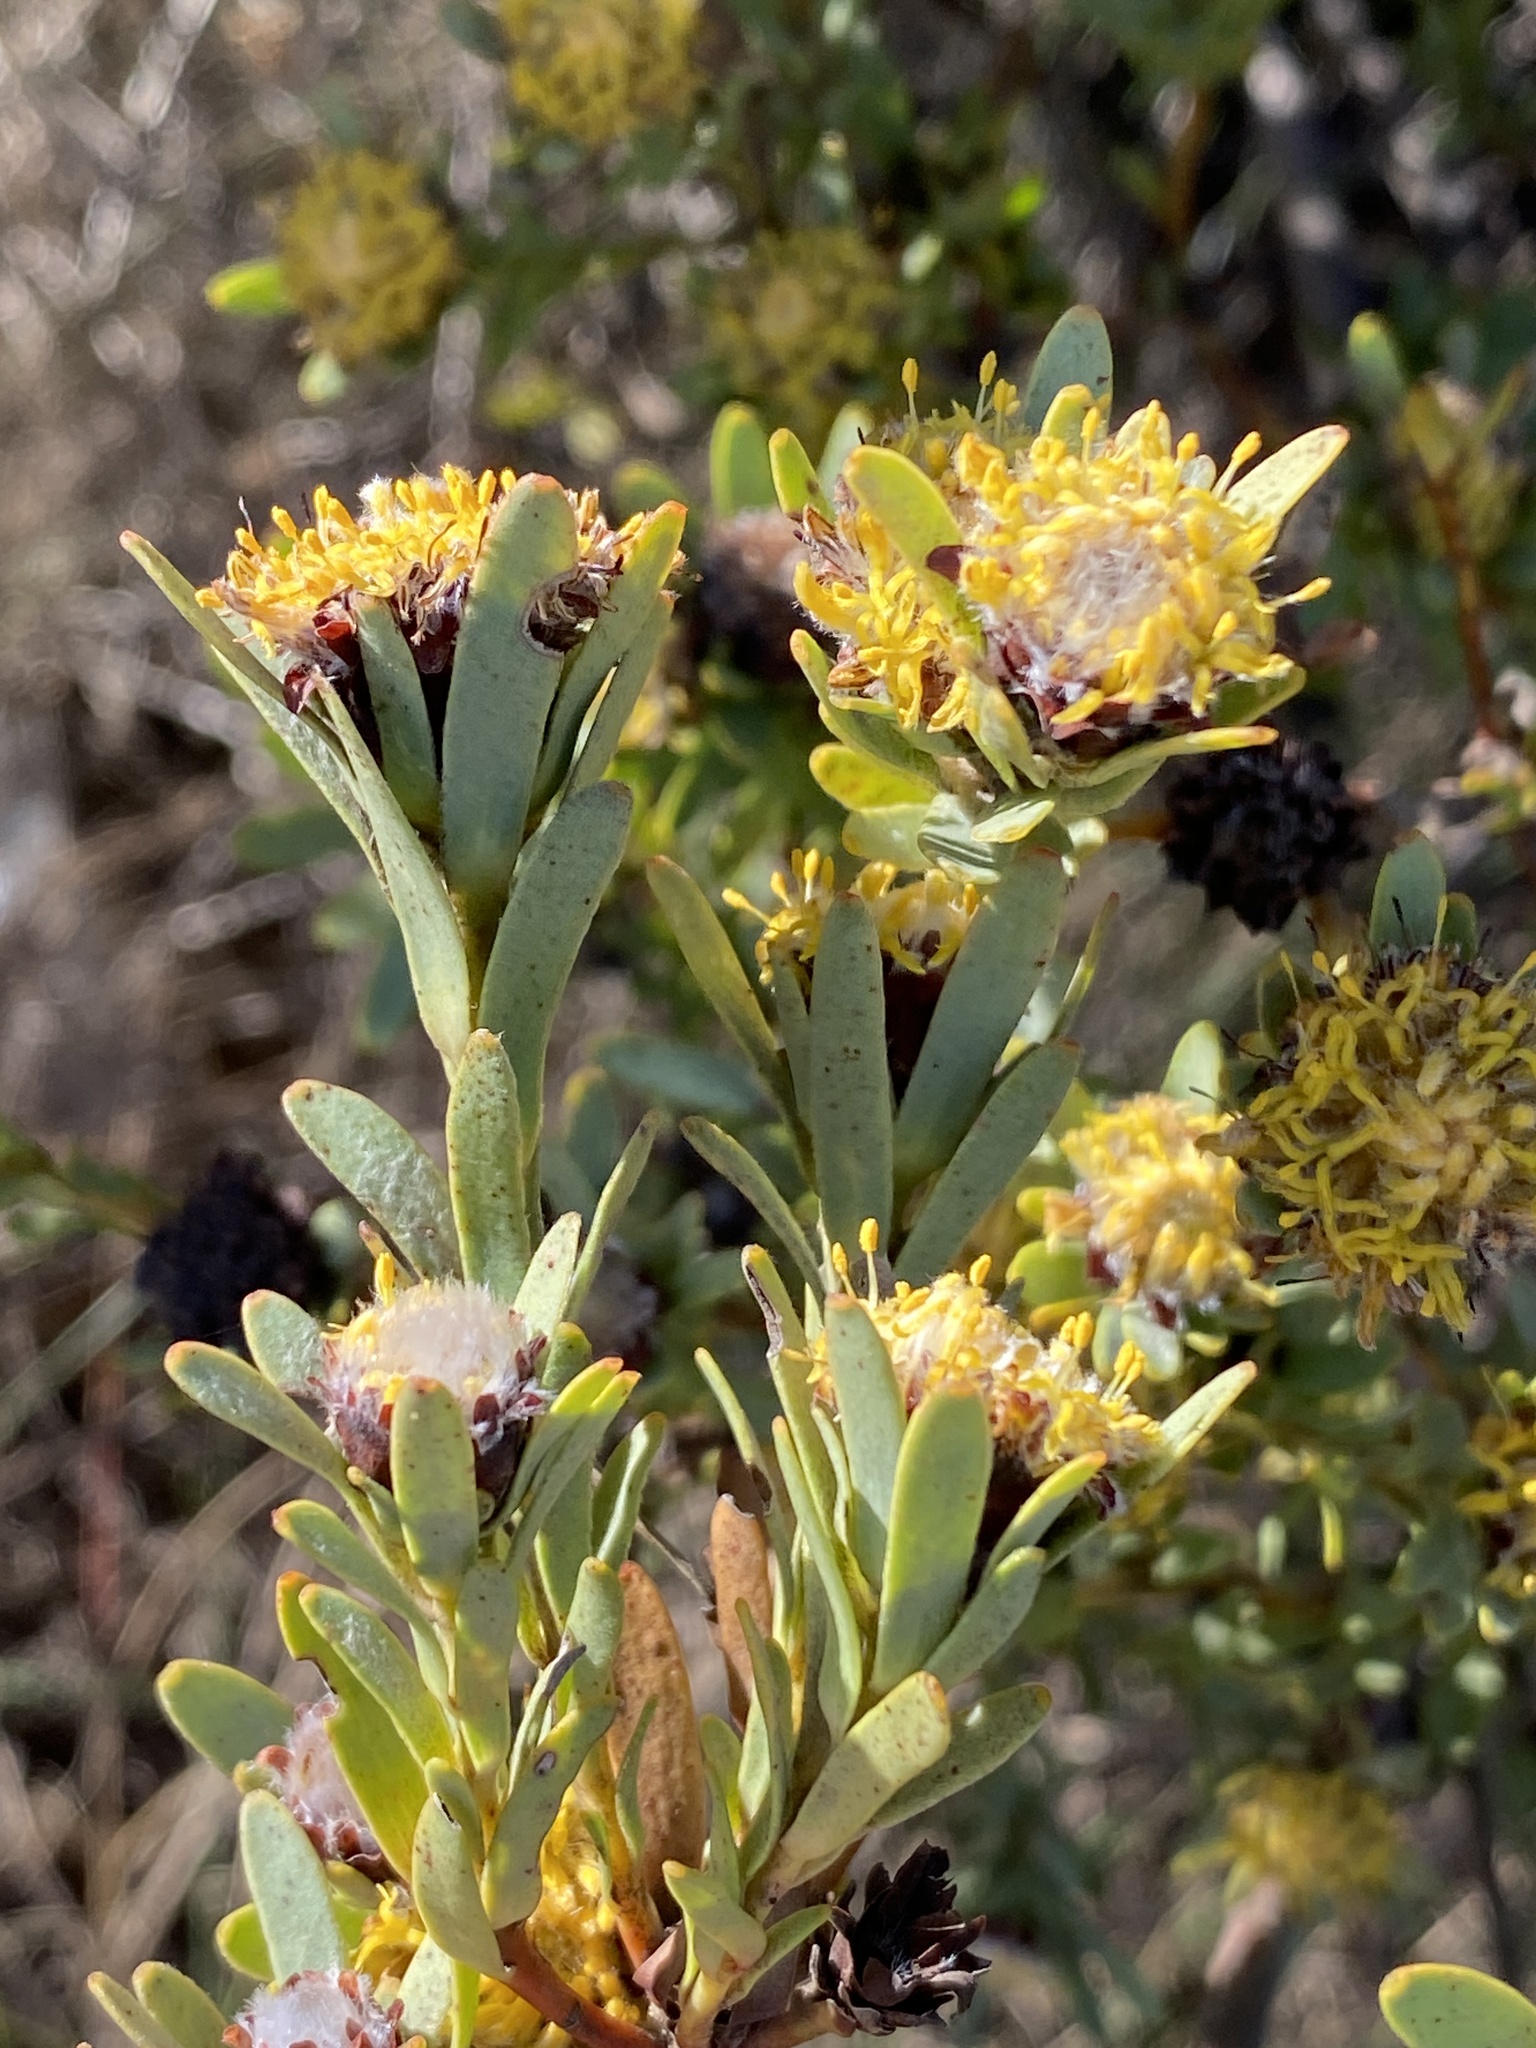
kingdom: Plantae
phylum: Tracheophyta
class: Magnoliopsida
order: Proteales
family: Proteaceae
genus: Leucadendron
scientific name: Leucadendron remotum
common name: Nieuwoudtville conebush
